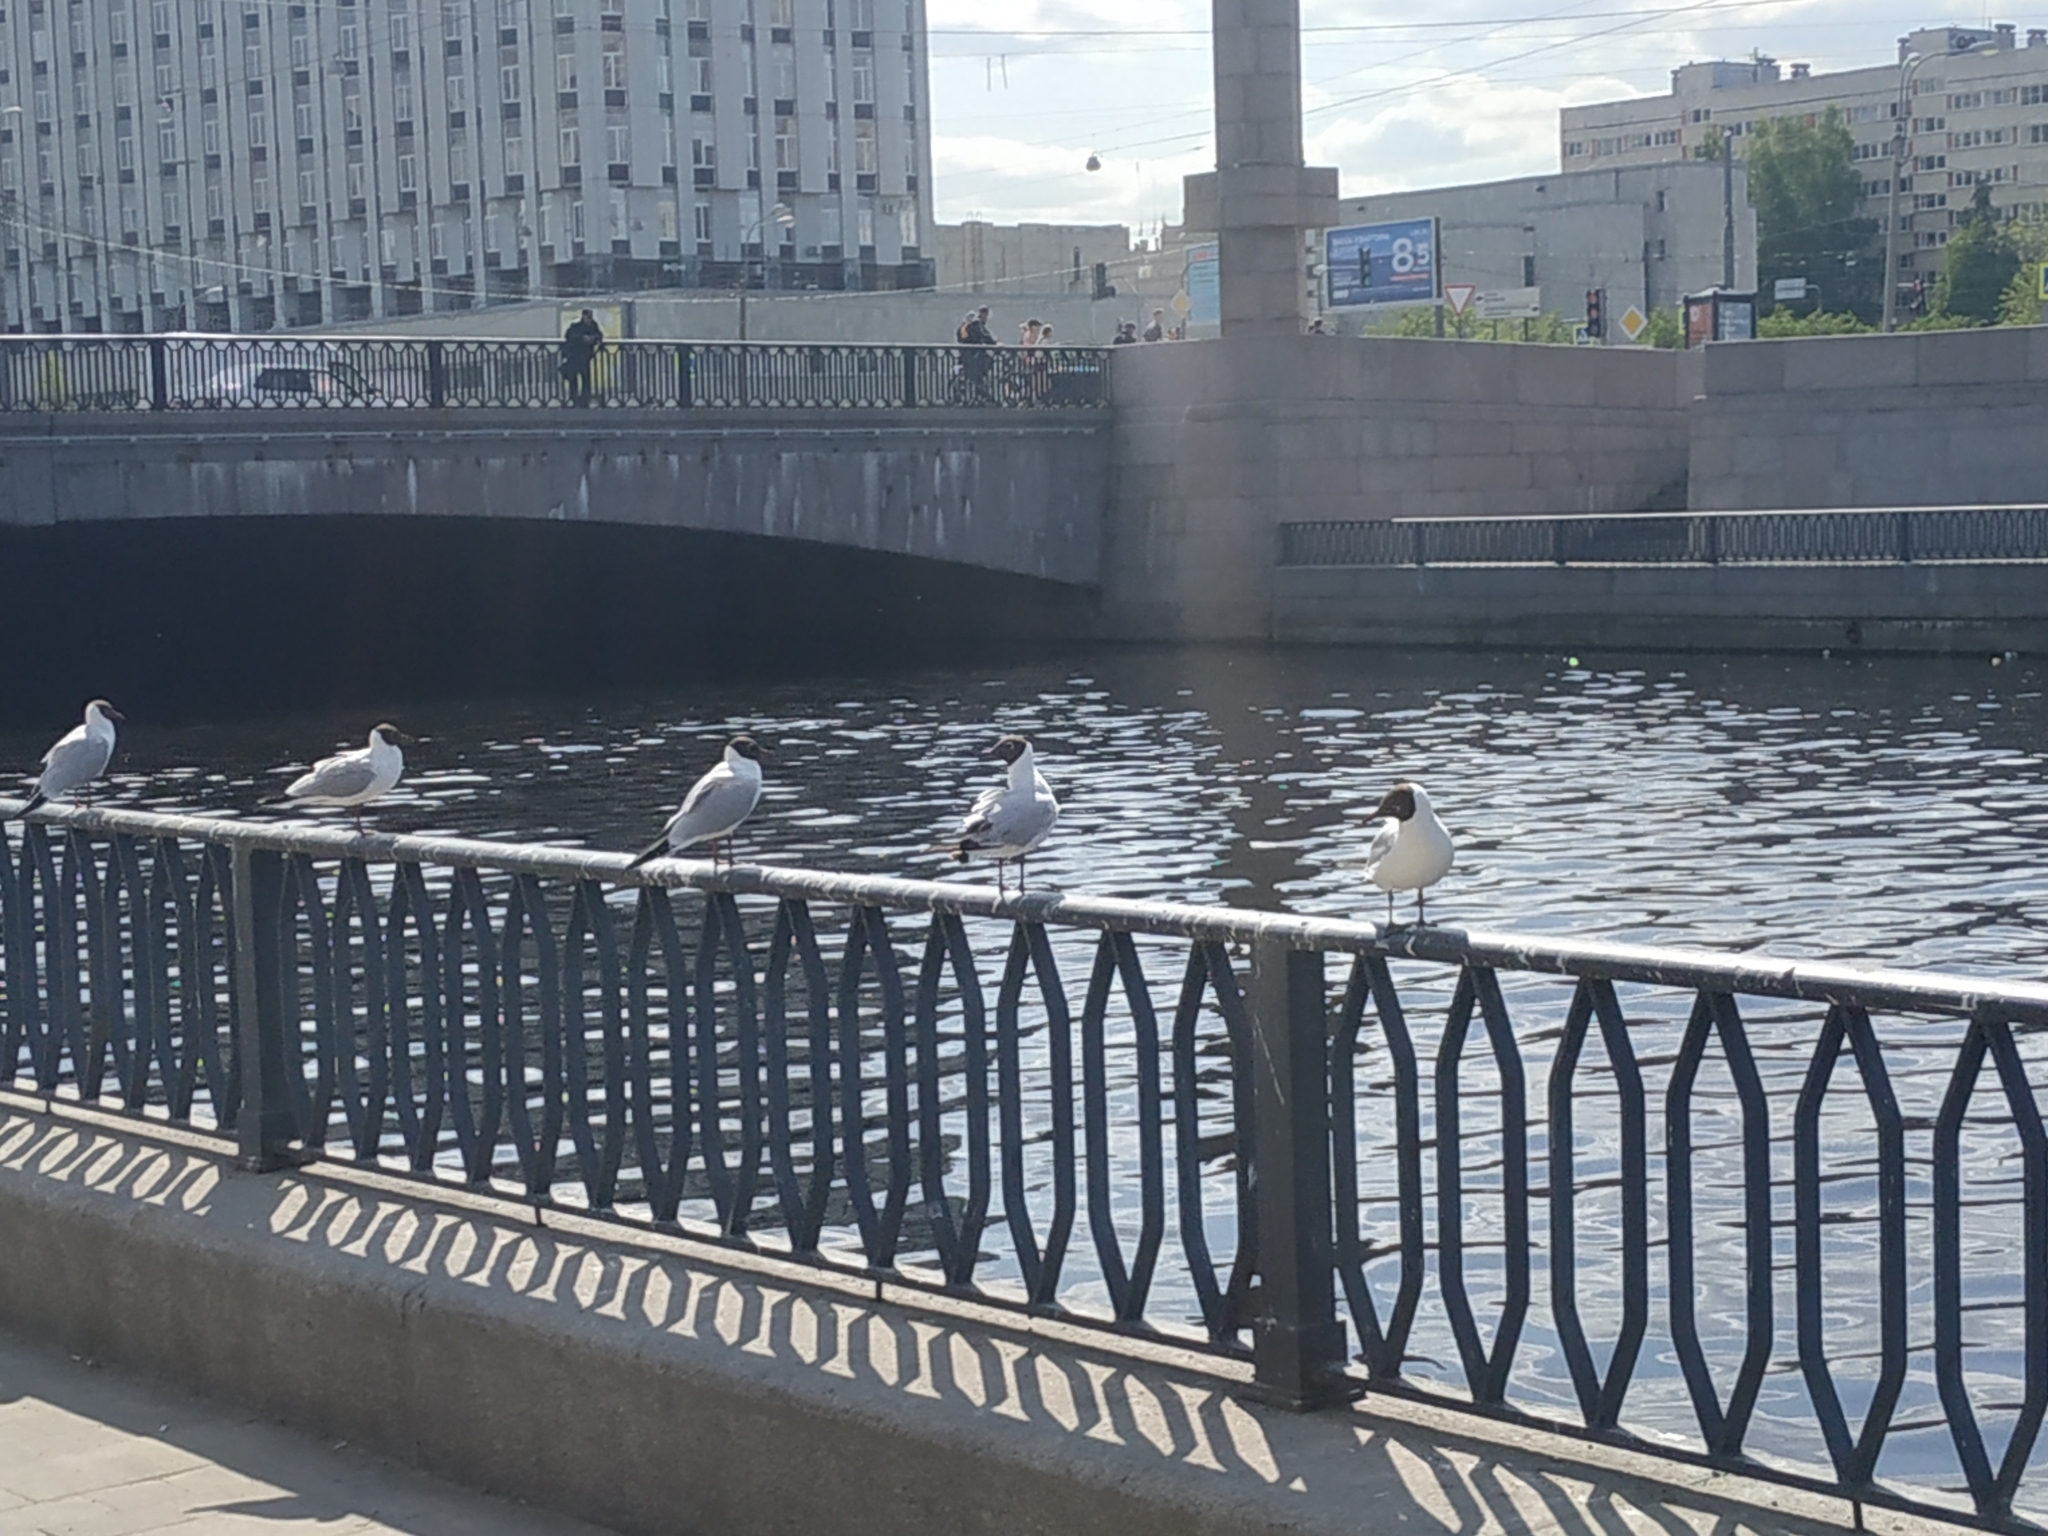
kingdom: Animalia
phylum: Chordata
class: Aves
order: Charadriiformes
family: Laridae
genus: Chroicocephalus
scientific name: Chroicocephalus ridibundus
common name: Black-headed gull
